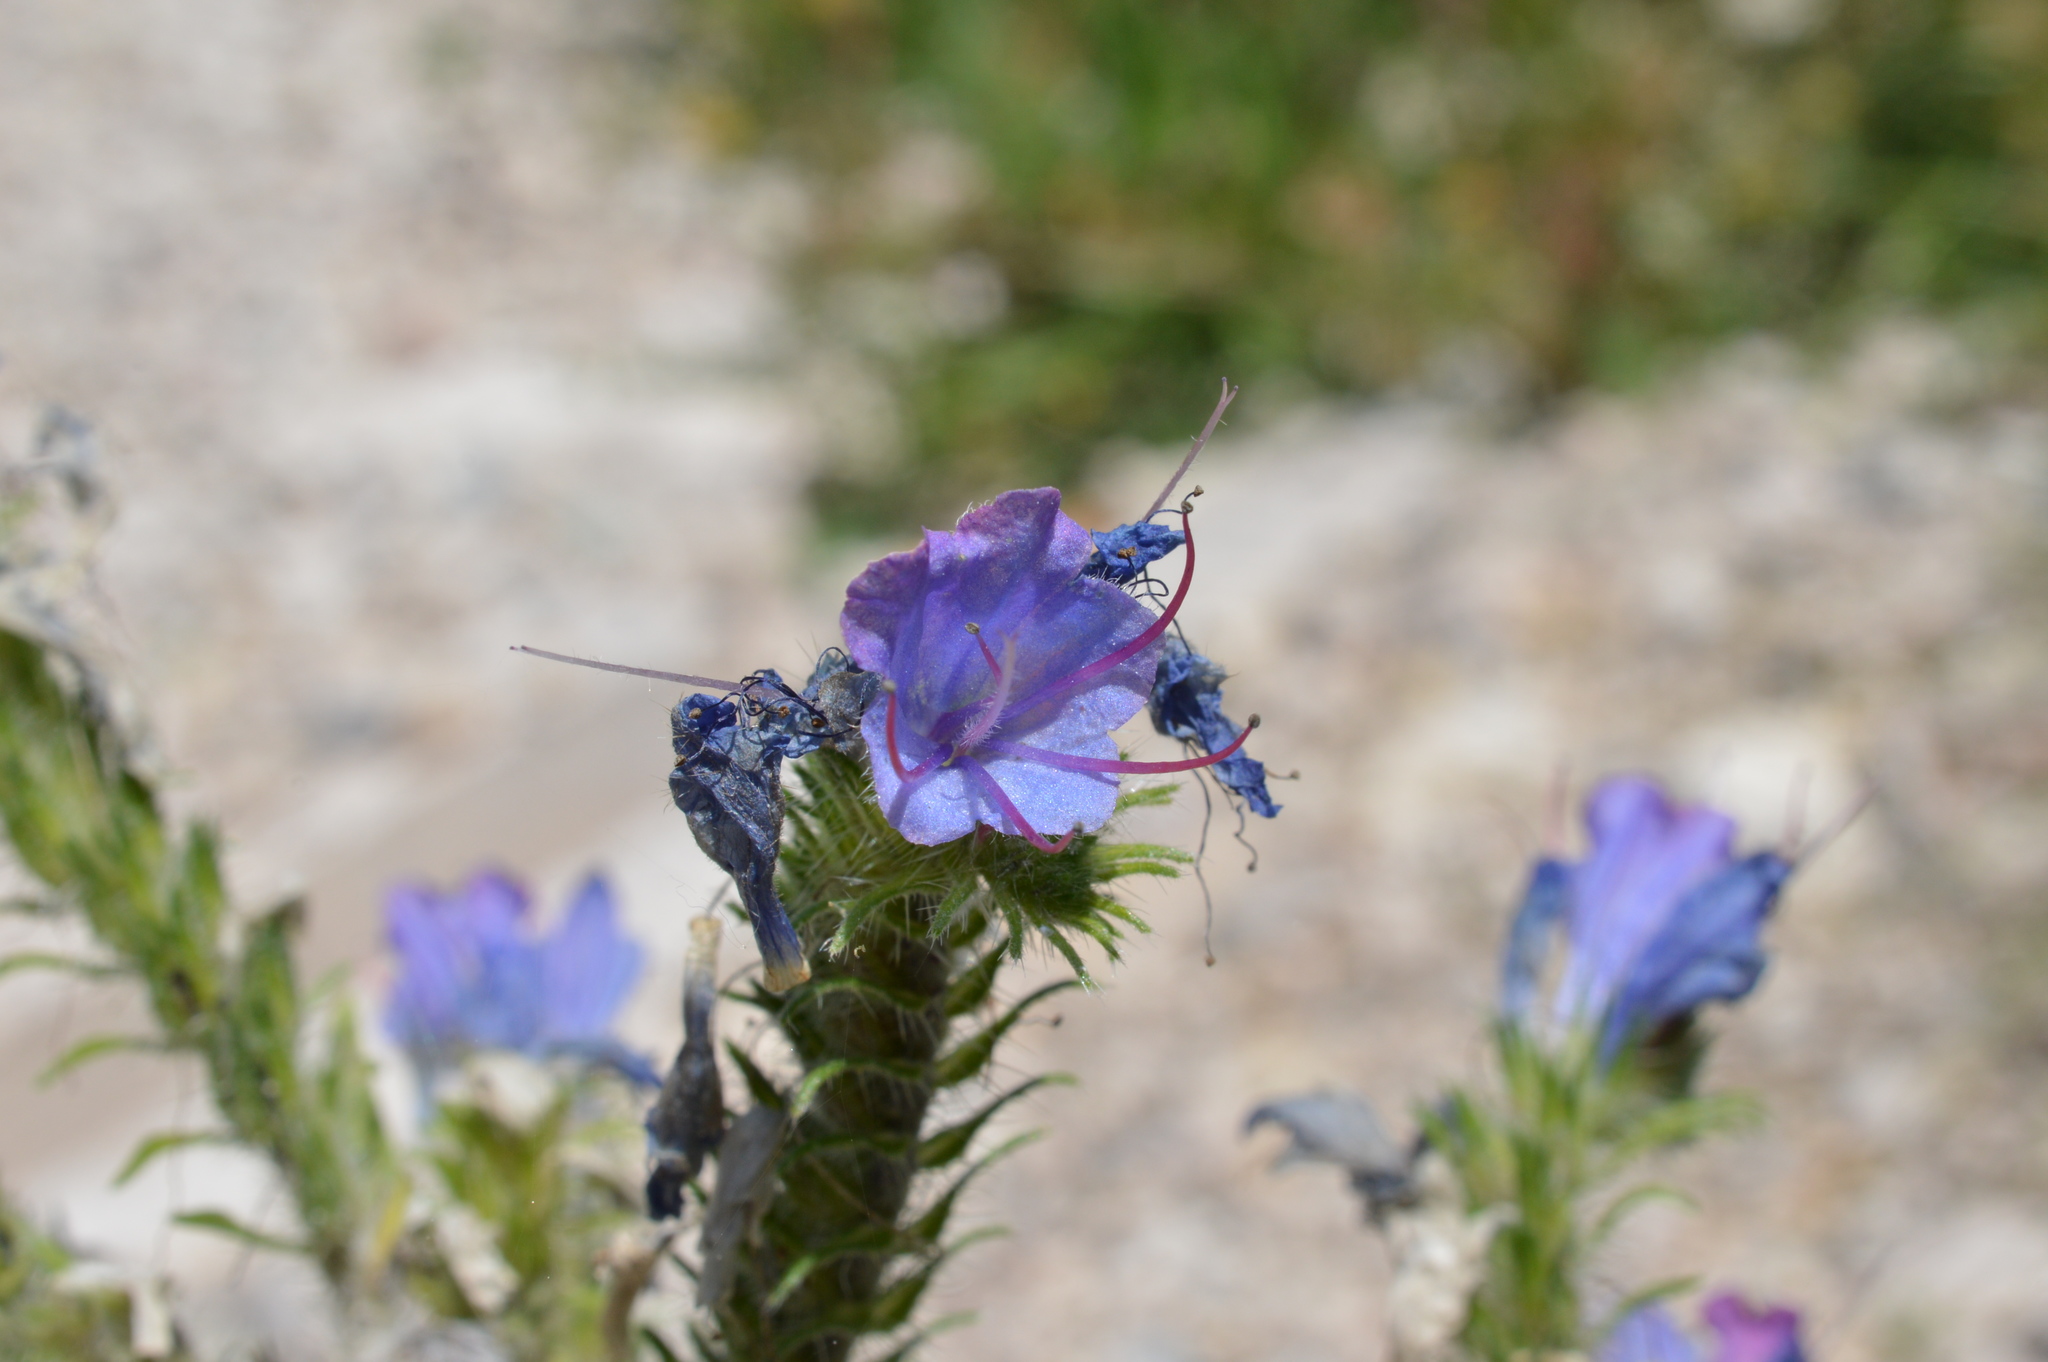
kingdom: Plantae
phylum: Tracheophyta
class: Magnoliopsida
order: Boraginales
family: Boraginaceae
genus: Echium
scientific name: Echium vulgare
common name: Common viper's bugloss
